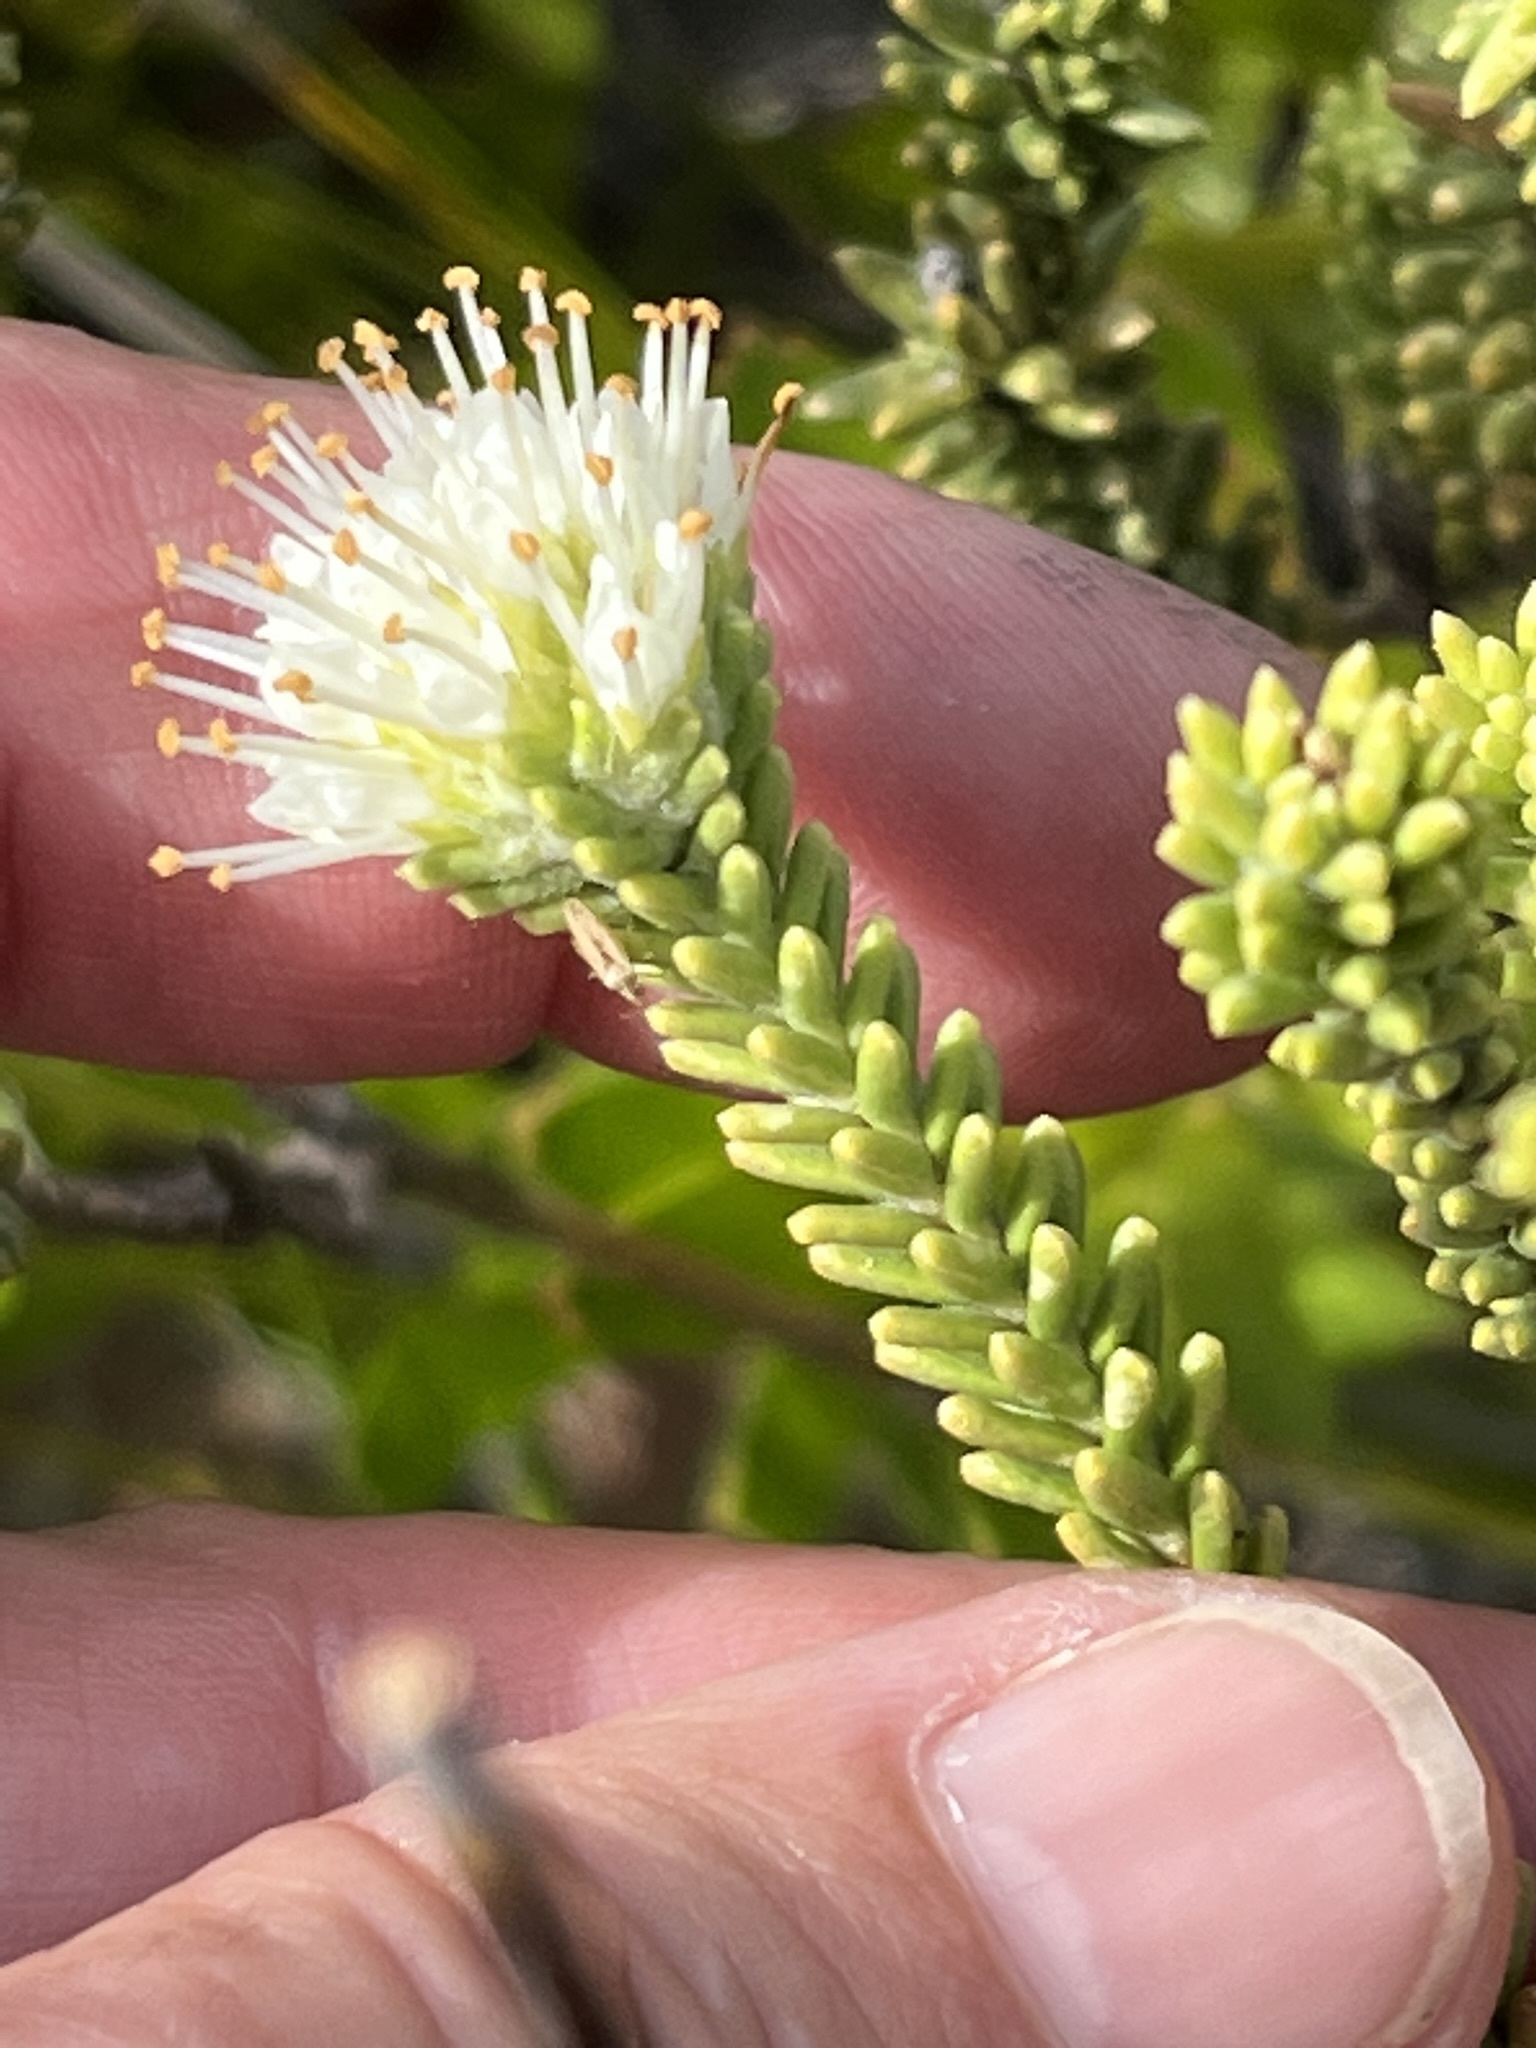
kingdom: Plantae
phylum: Tracheophyta
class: Magnoliopsida
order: Lamiales
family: Stilbaceae
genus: Campylostachys
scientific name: Campylostachys cernua
